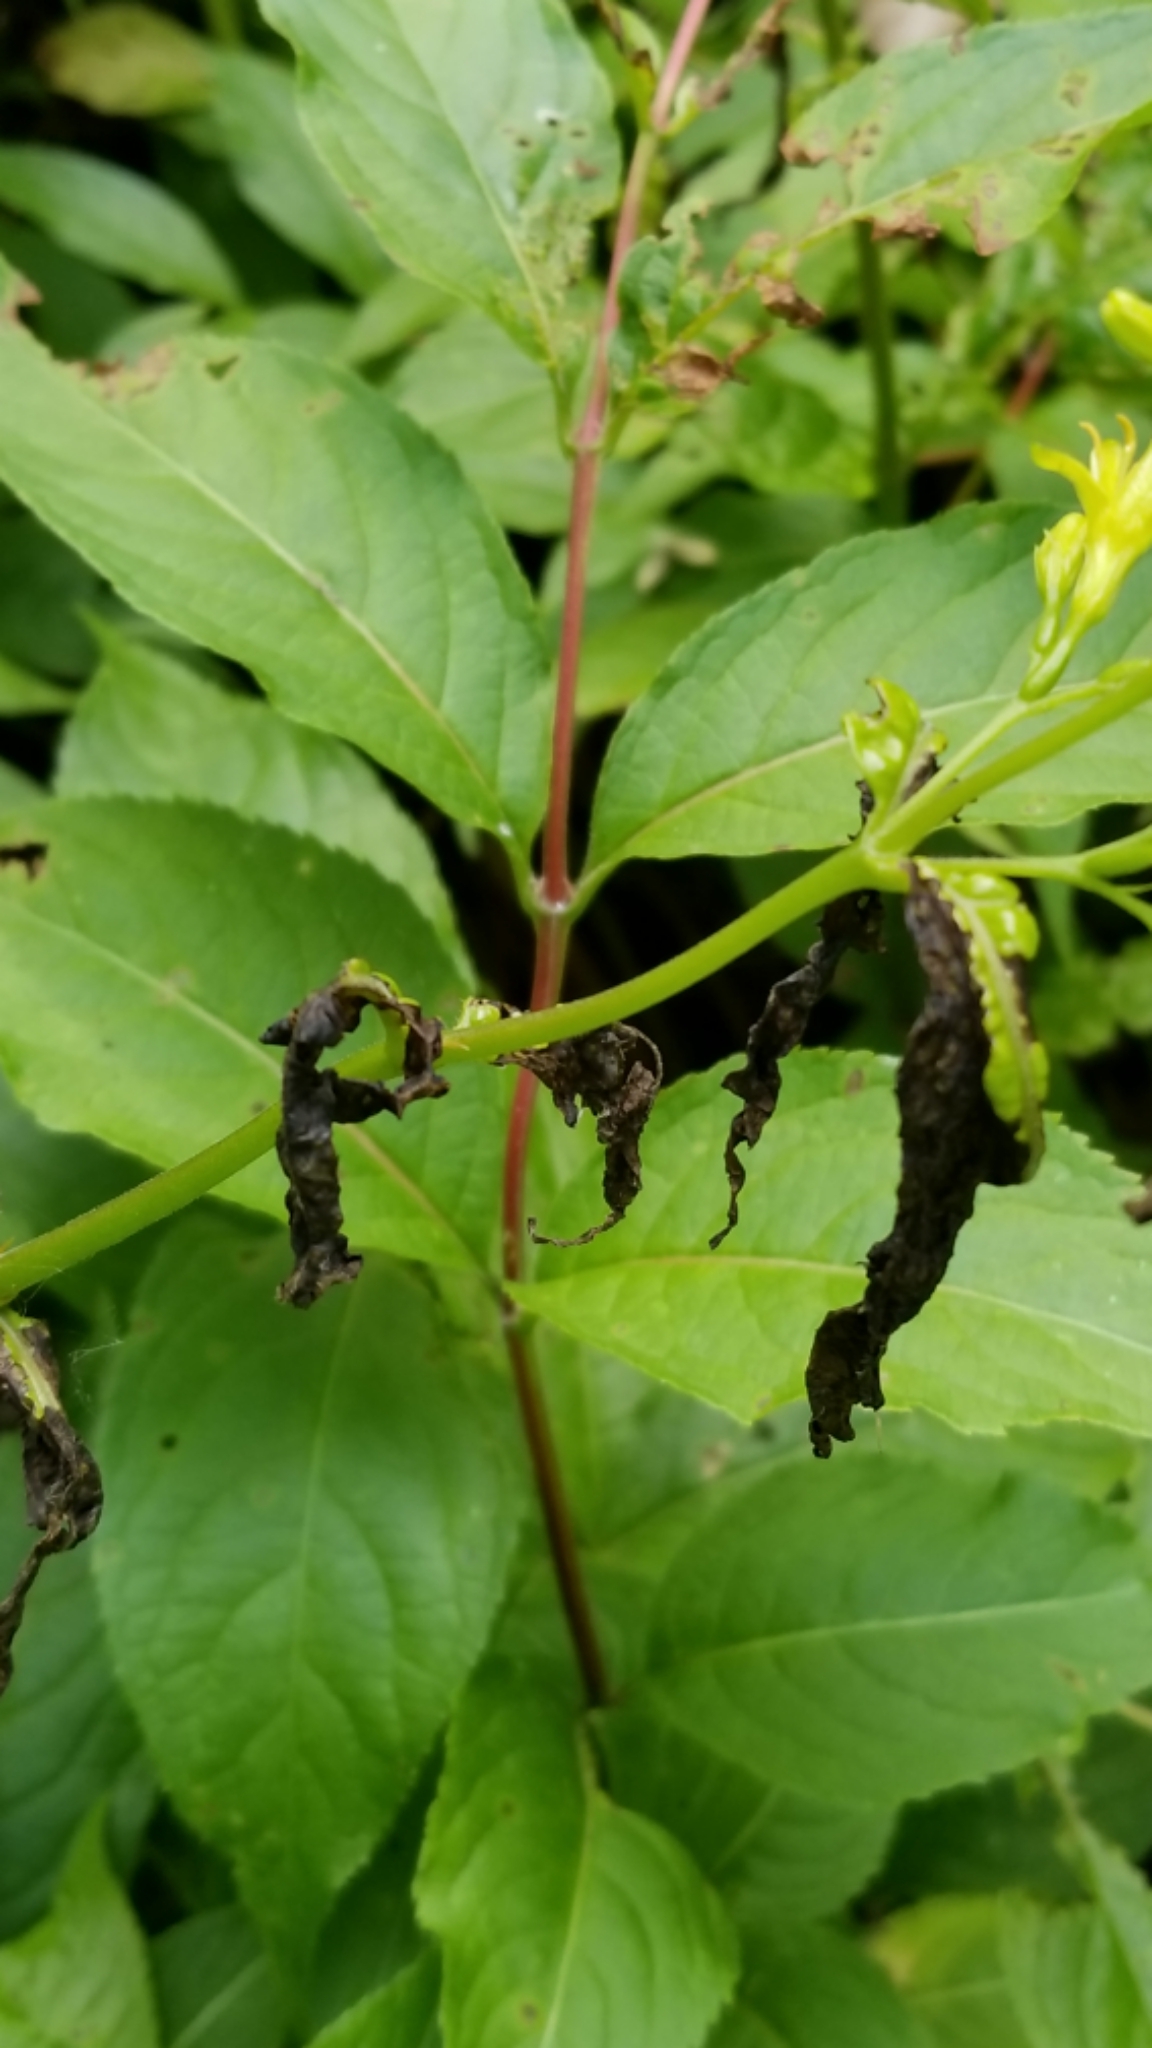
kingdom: Plantae
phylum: Tracheophyta
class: Magnoliopsida
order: Dipsacales
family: Caprifoliaceae
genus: Diervilla
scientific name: Diervilla lonicera
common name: Bush-honeysuckle
